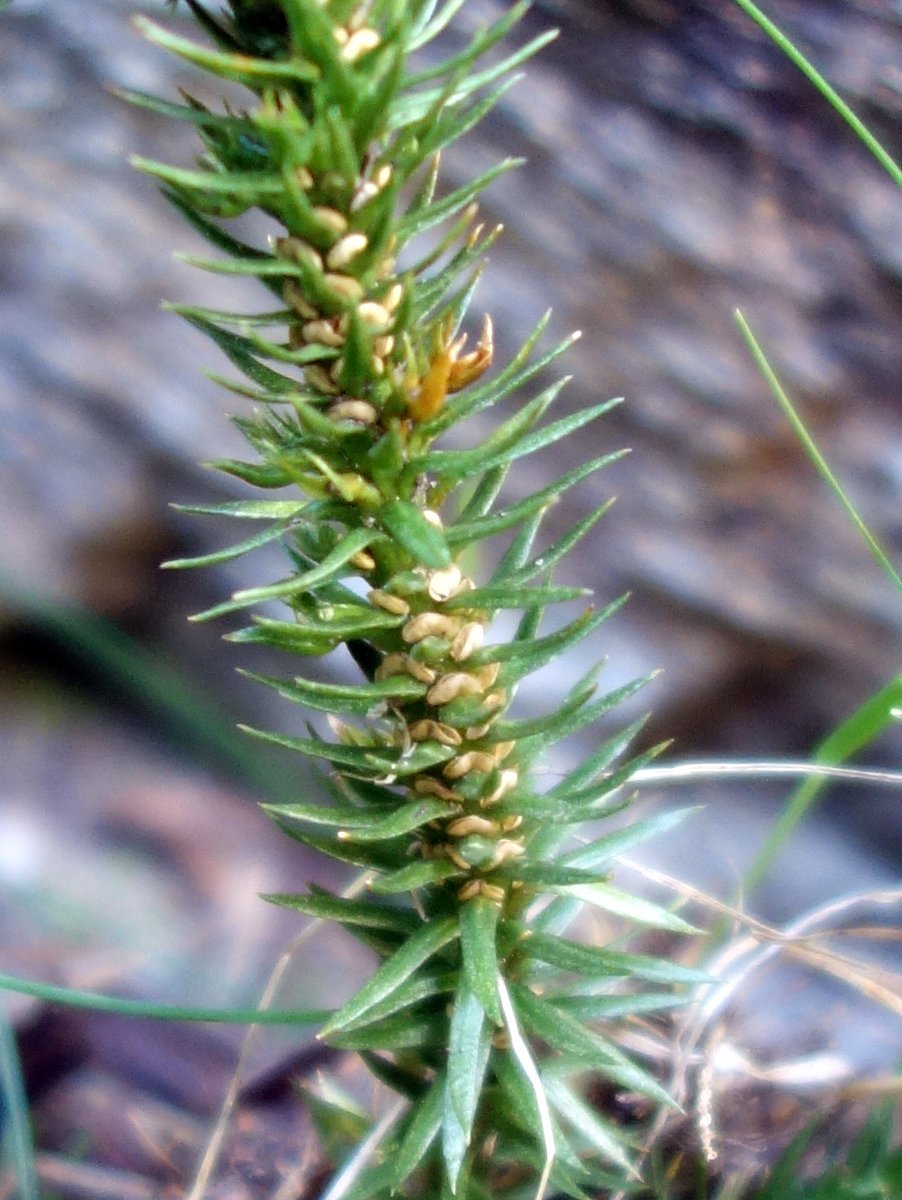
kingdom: Plantae
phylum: Tracheophyta
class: Lycopodiopsida
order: Lycopodiales
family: Lycopodiaceae
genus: Huperzia
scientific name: Huperzia selago
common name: Northern firmoss
